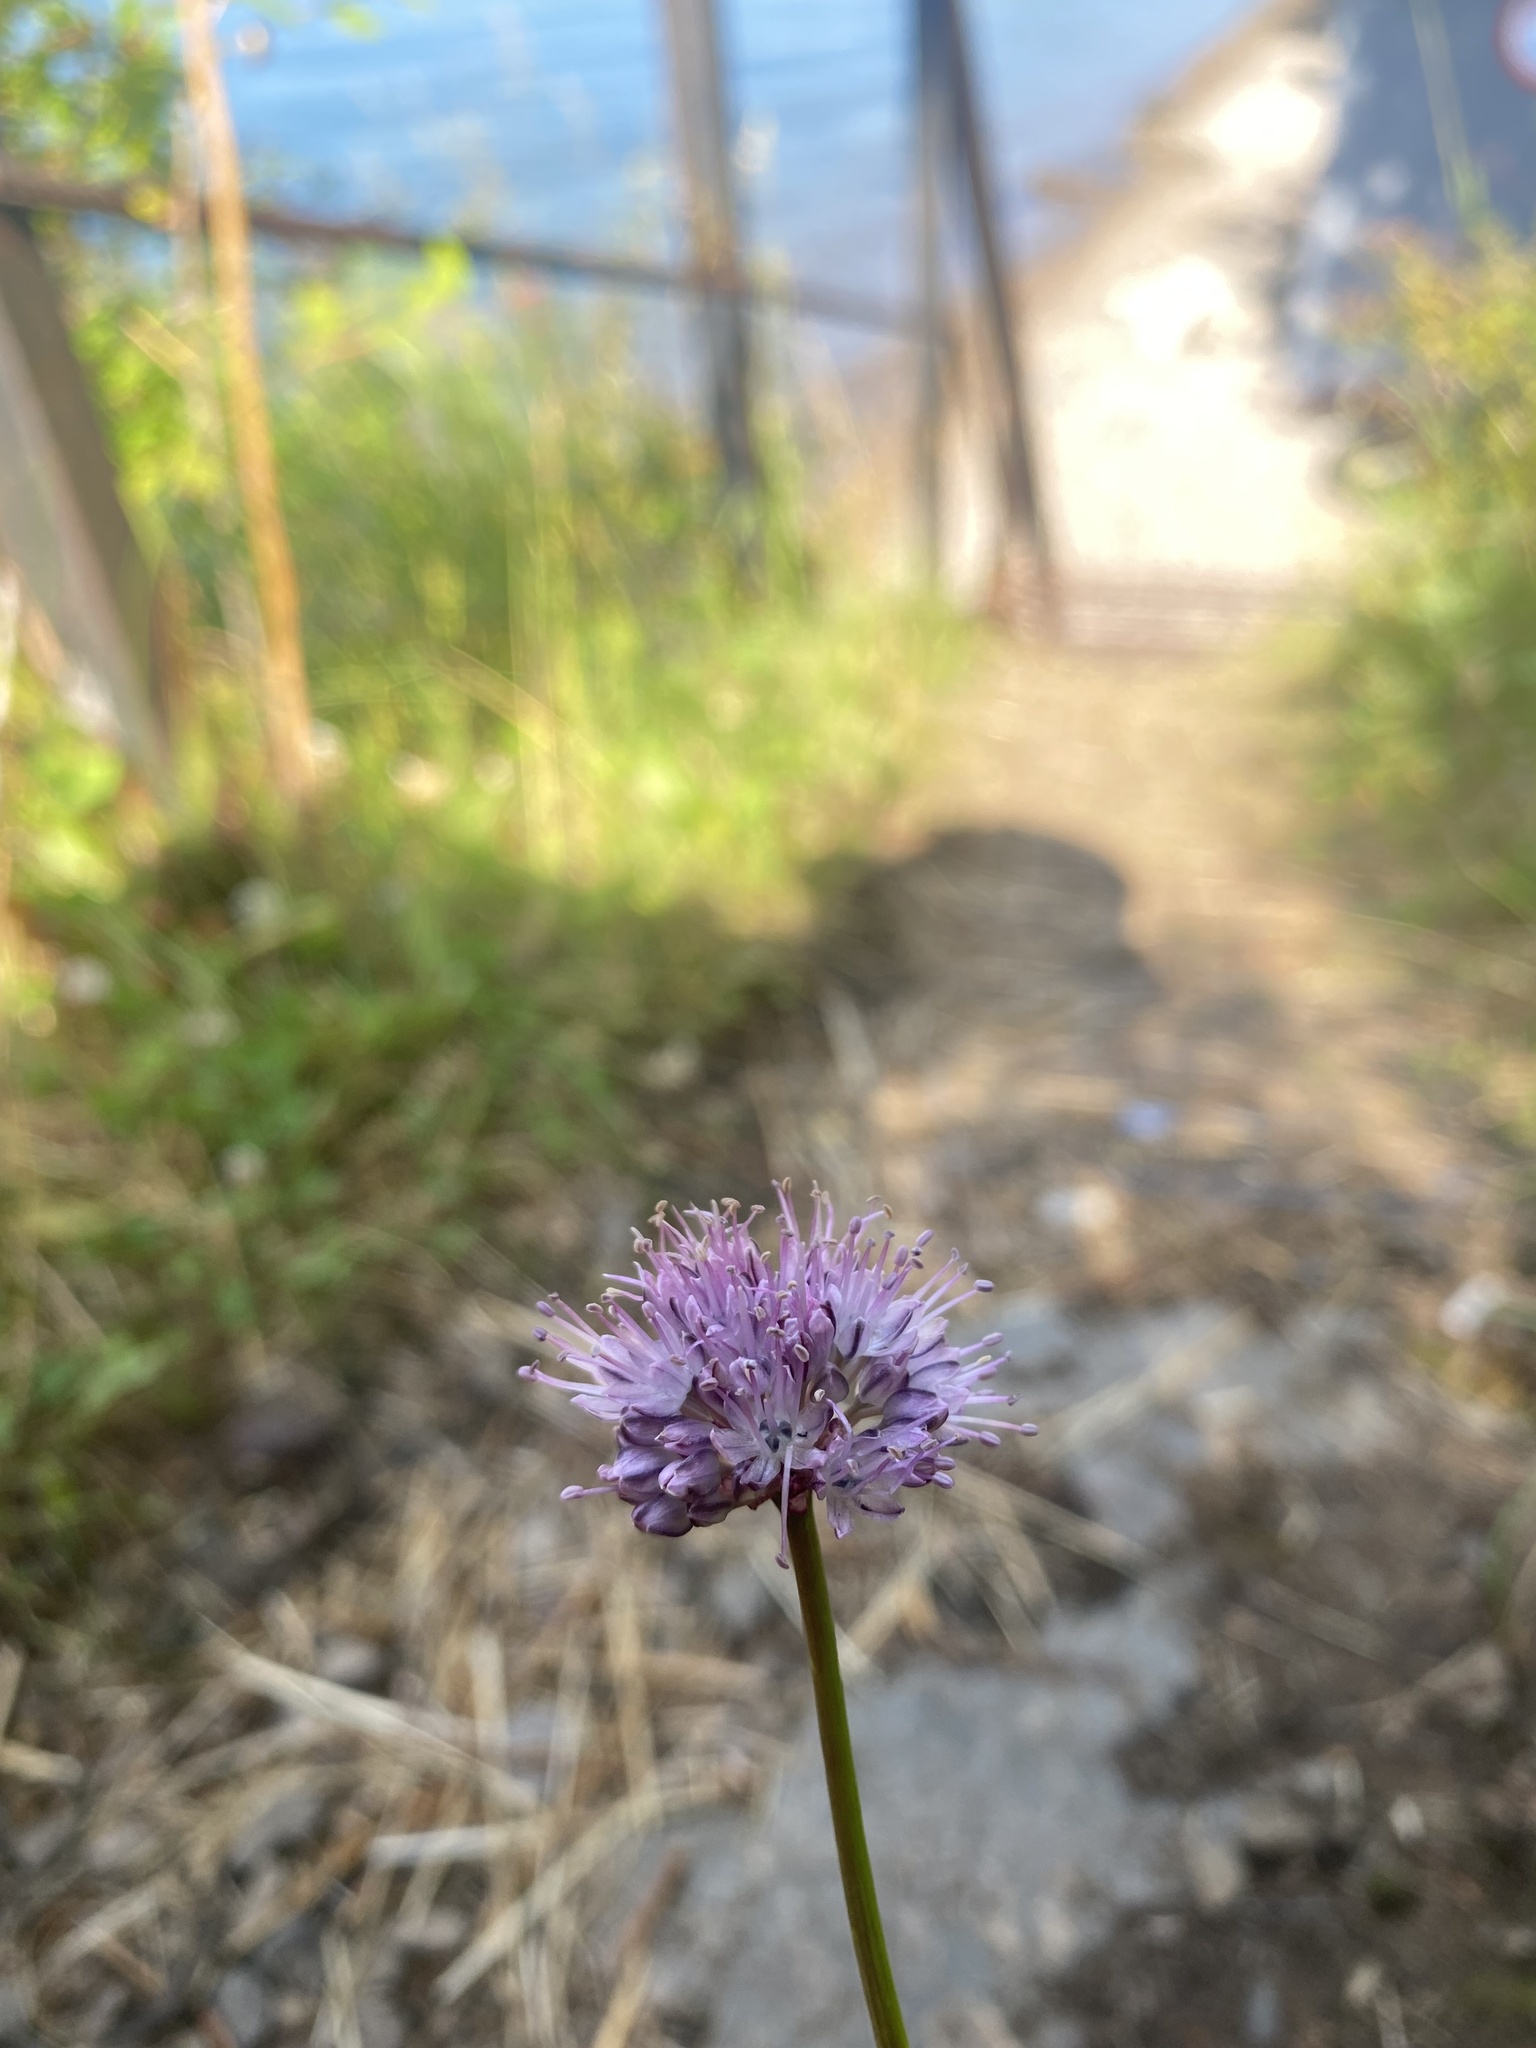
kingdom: Plantae
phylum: Tracheophyta
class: Liliopsida
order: Asparagales
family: Amaryllidaceae
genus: Allium
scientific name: Allium strictum
